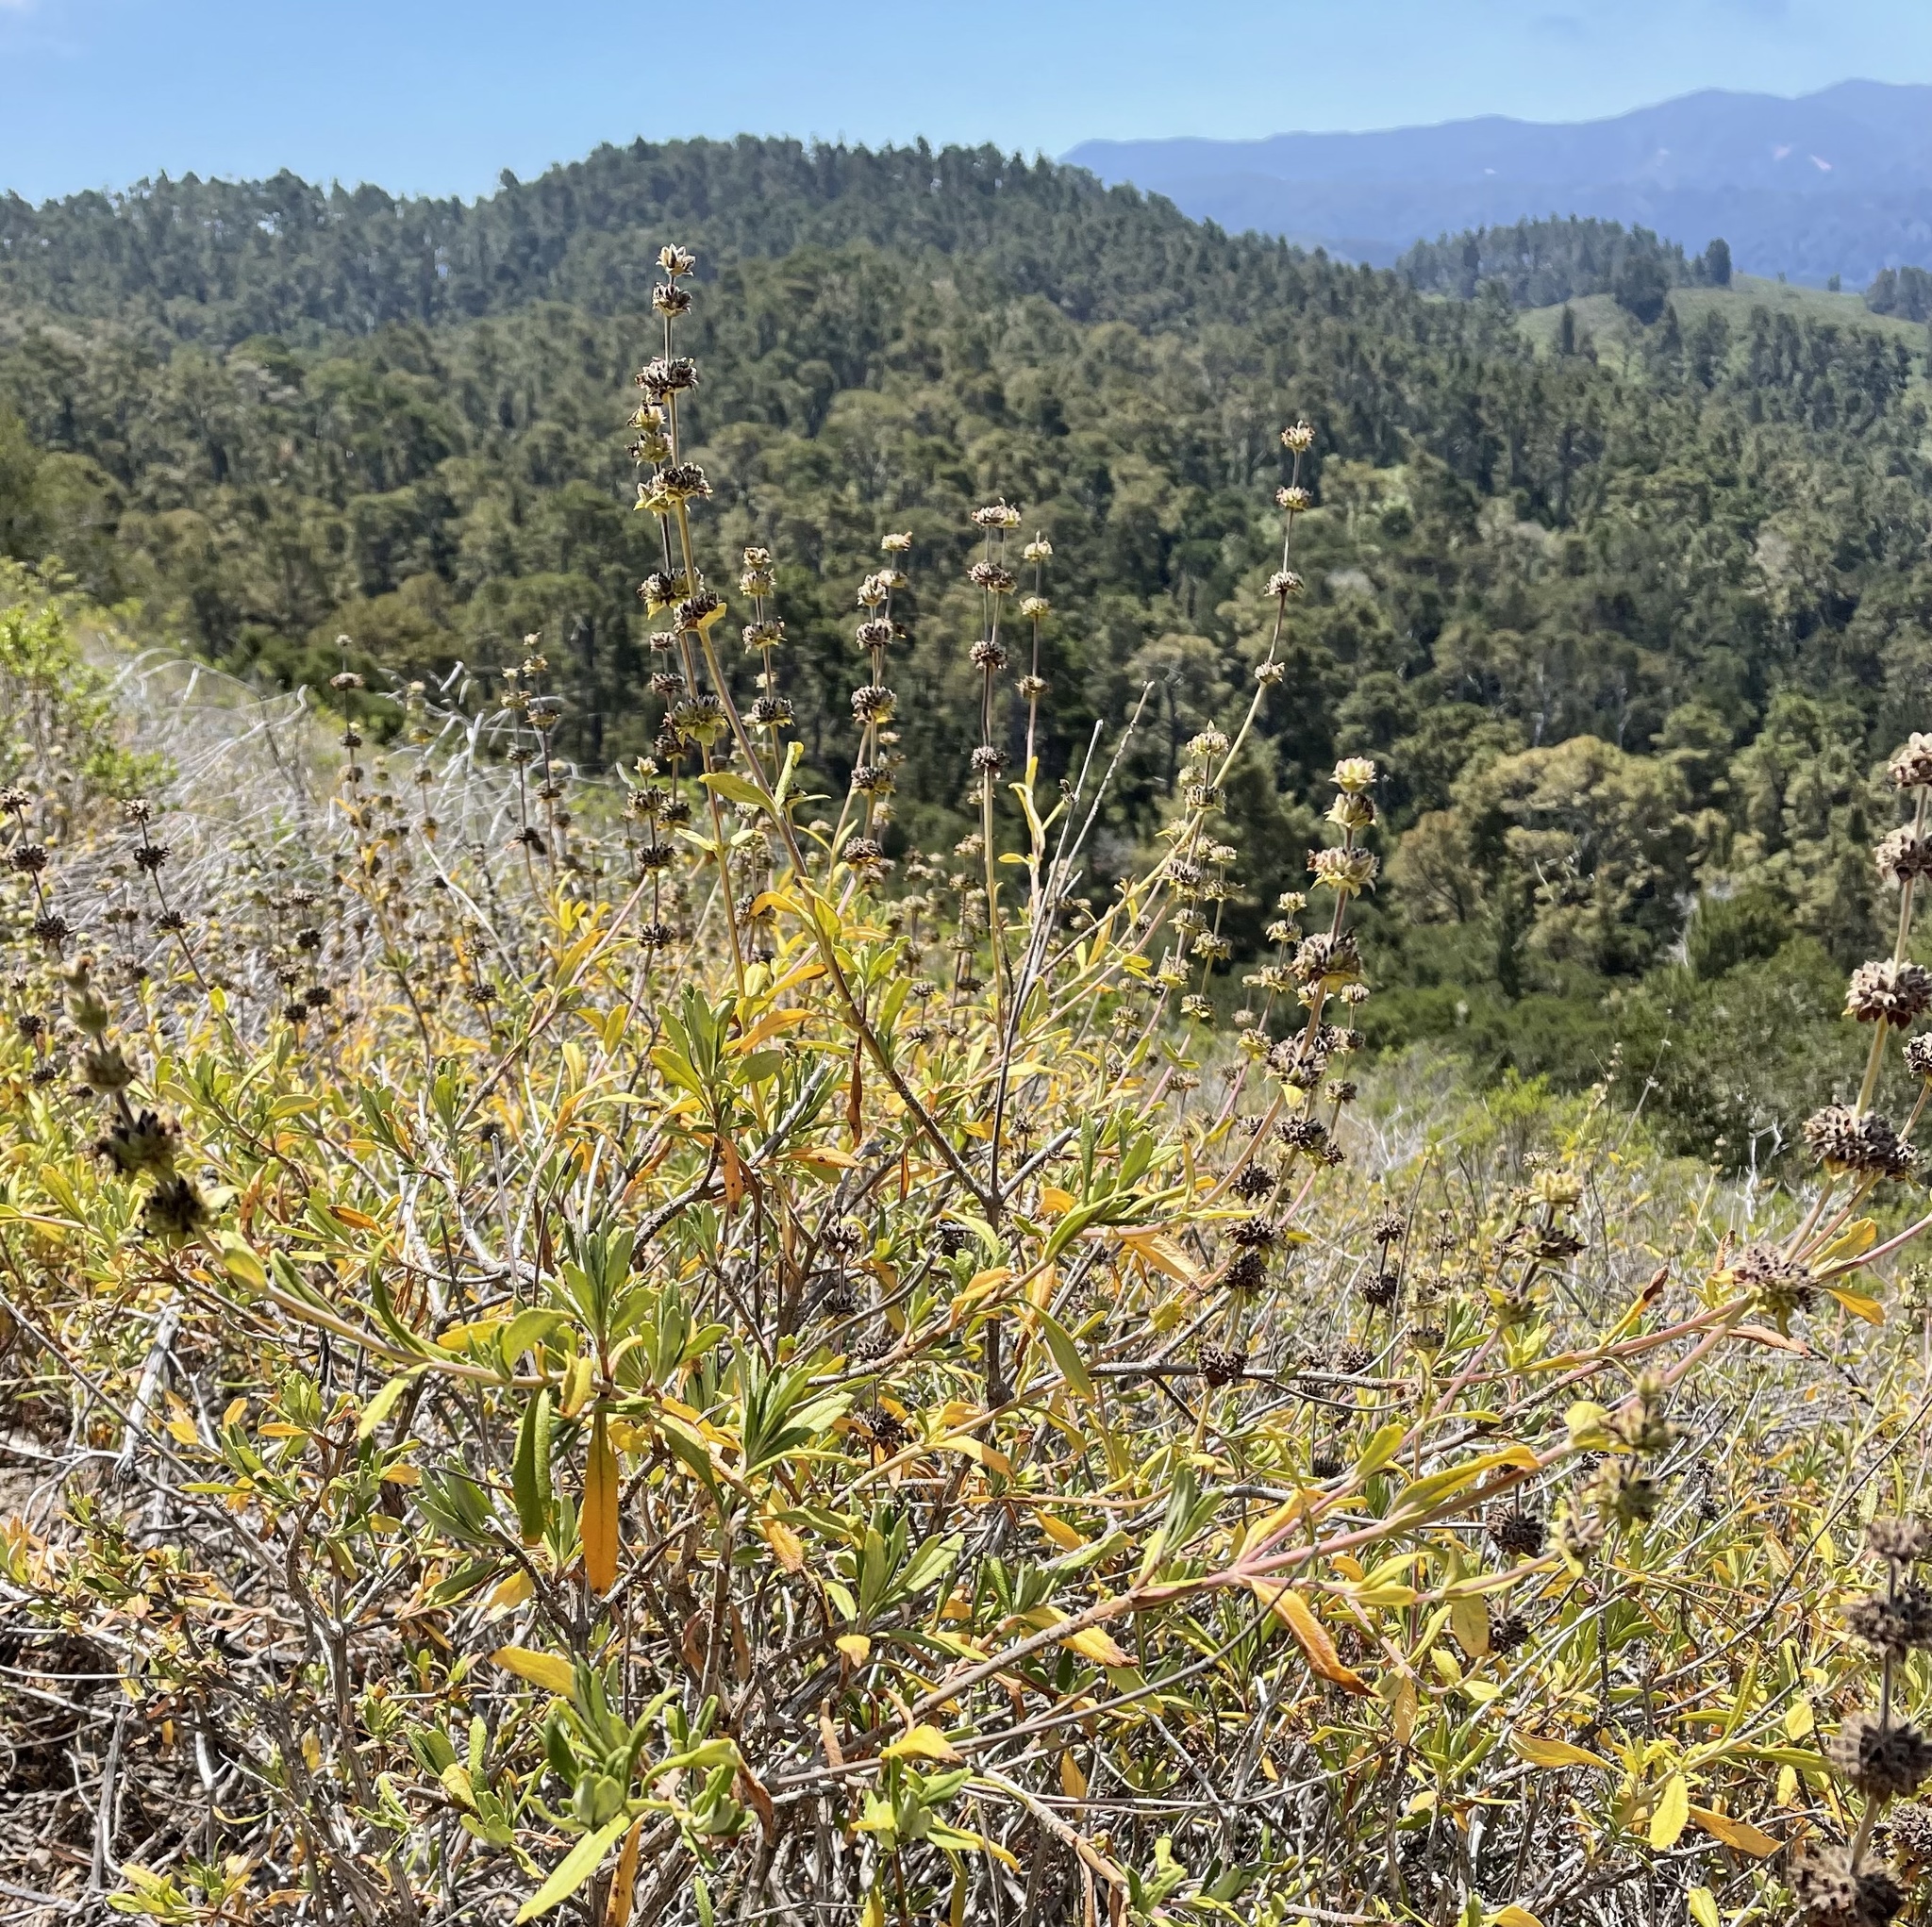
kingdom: Plantae
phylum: Tracheophyta
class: Magnoliopsida
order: Lamiales
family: Lamiaceae
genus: Salvia
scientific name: Salvia mellifera
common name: Black sage
